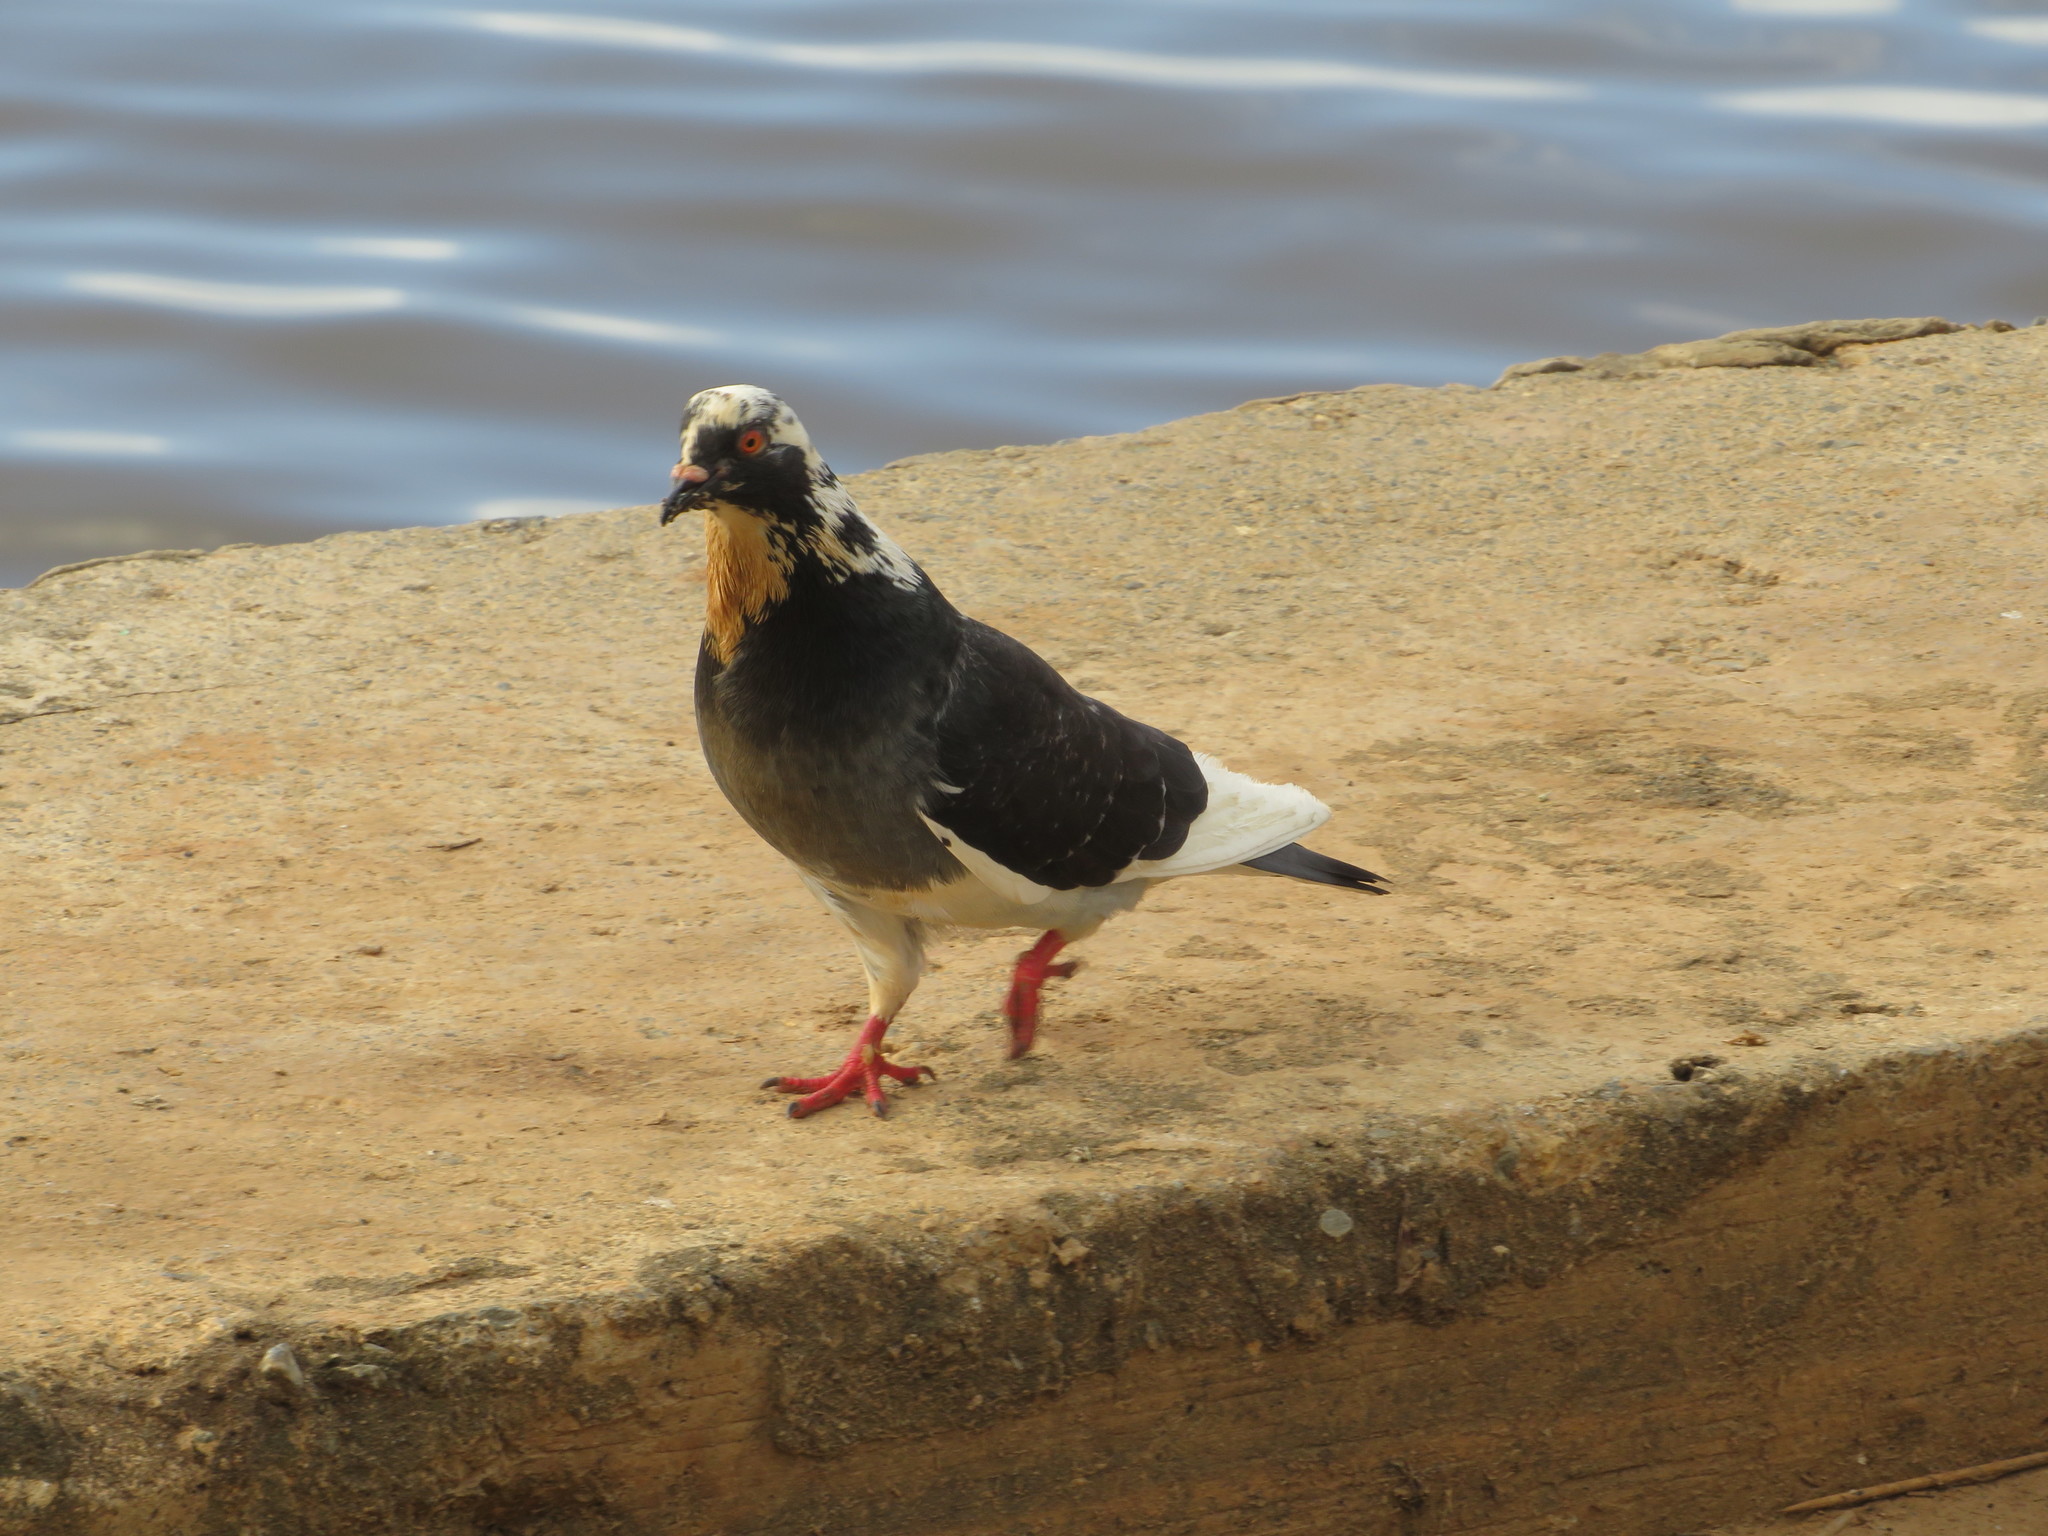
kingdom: Animalia
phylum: Chordata
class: Aves
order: Columbiformes
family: Columbidae
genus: Columba
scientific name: Columba livia
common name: Rock pigeon
